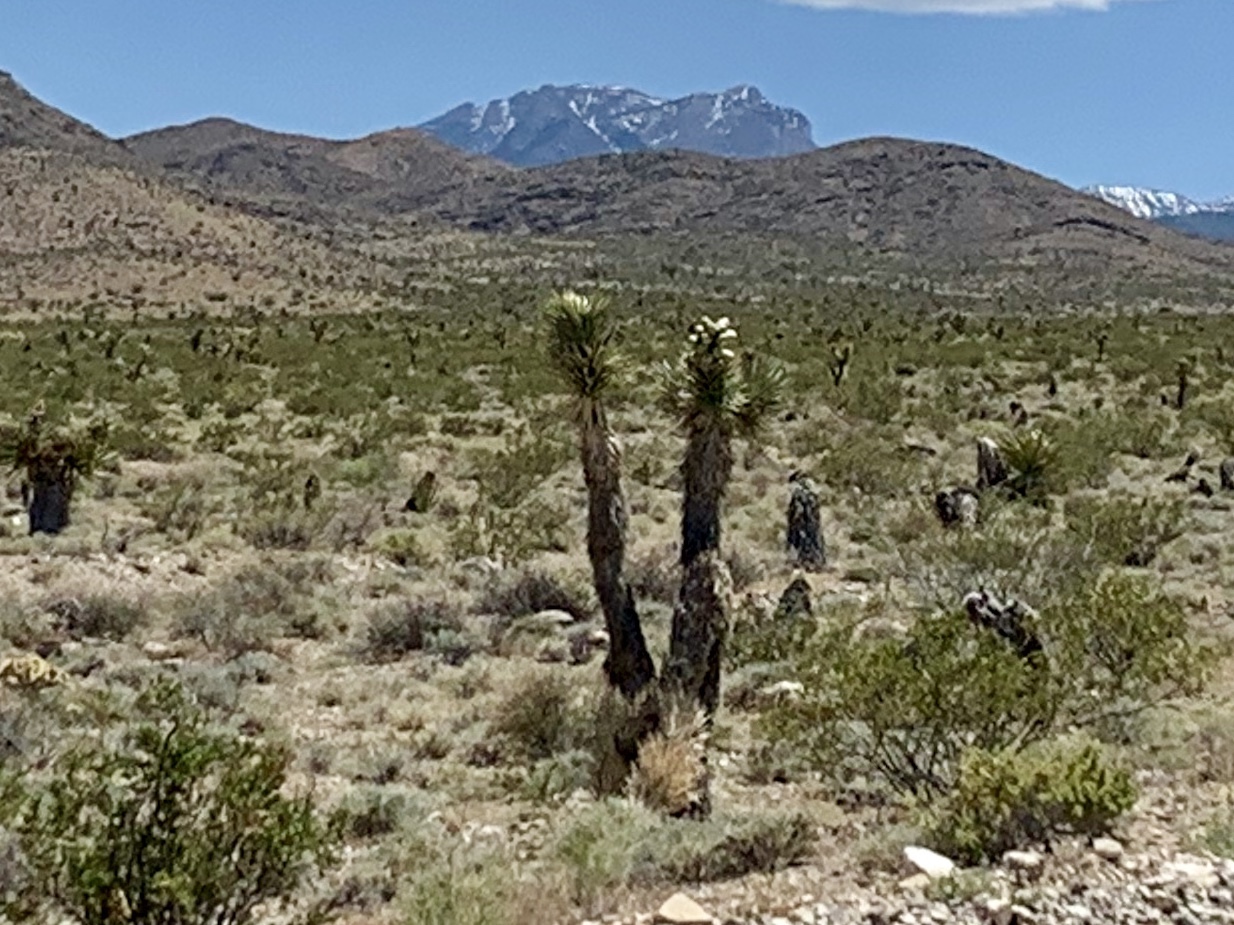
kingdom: Plantae
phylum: Tracheophyta
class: Liliopsida
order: Asparagales
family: Asparagaceae
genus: Yucca
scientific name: Yucca brevifolia
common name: Joshua tree
